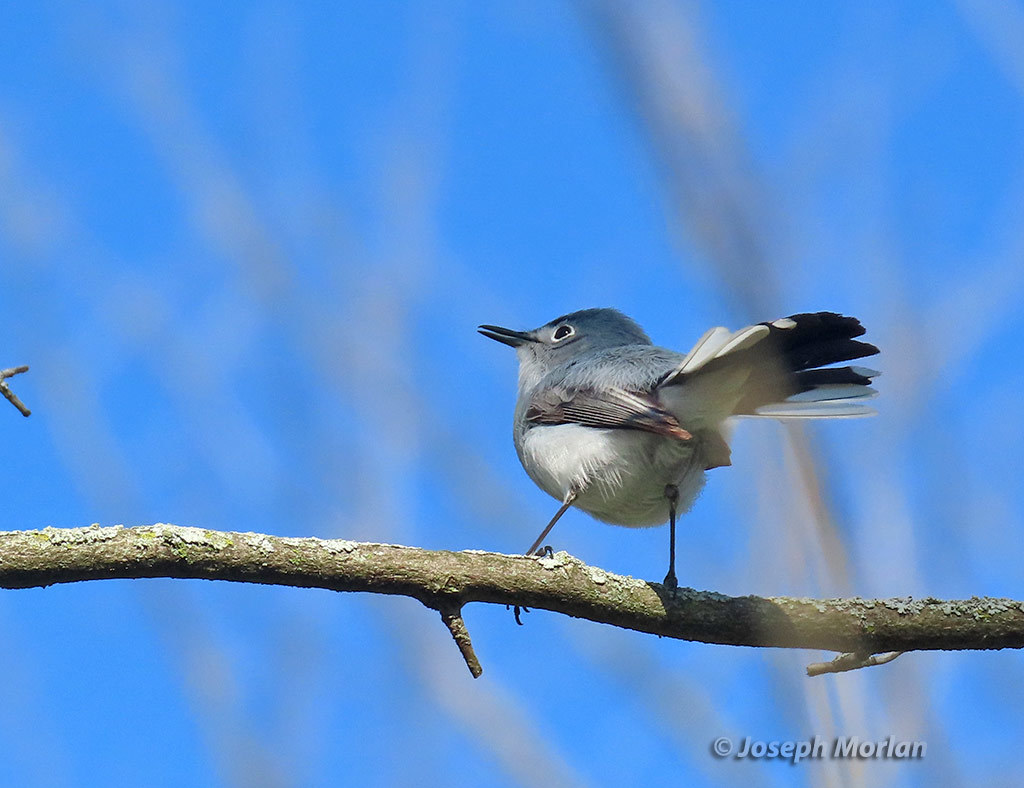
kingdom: Animalia
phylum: Chordata
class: Aves
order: Passeriformes
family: Polioptilidae
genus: Polioptila
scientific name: Polioptila caerulea
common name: Blue-gray gnatcatcher
